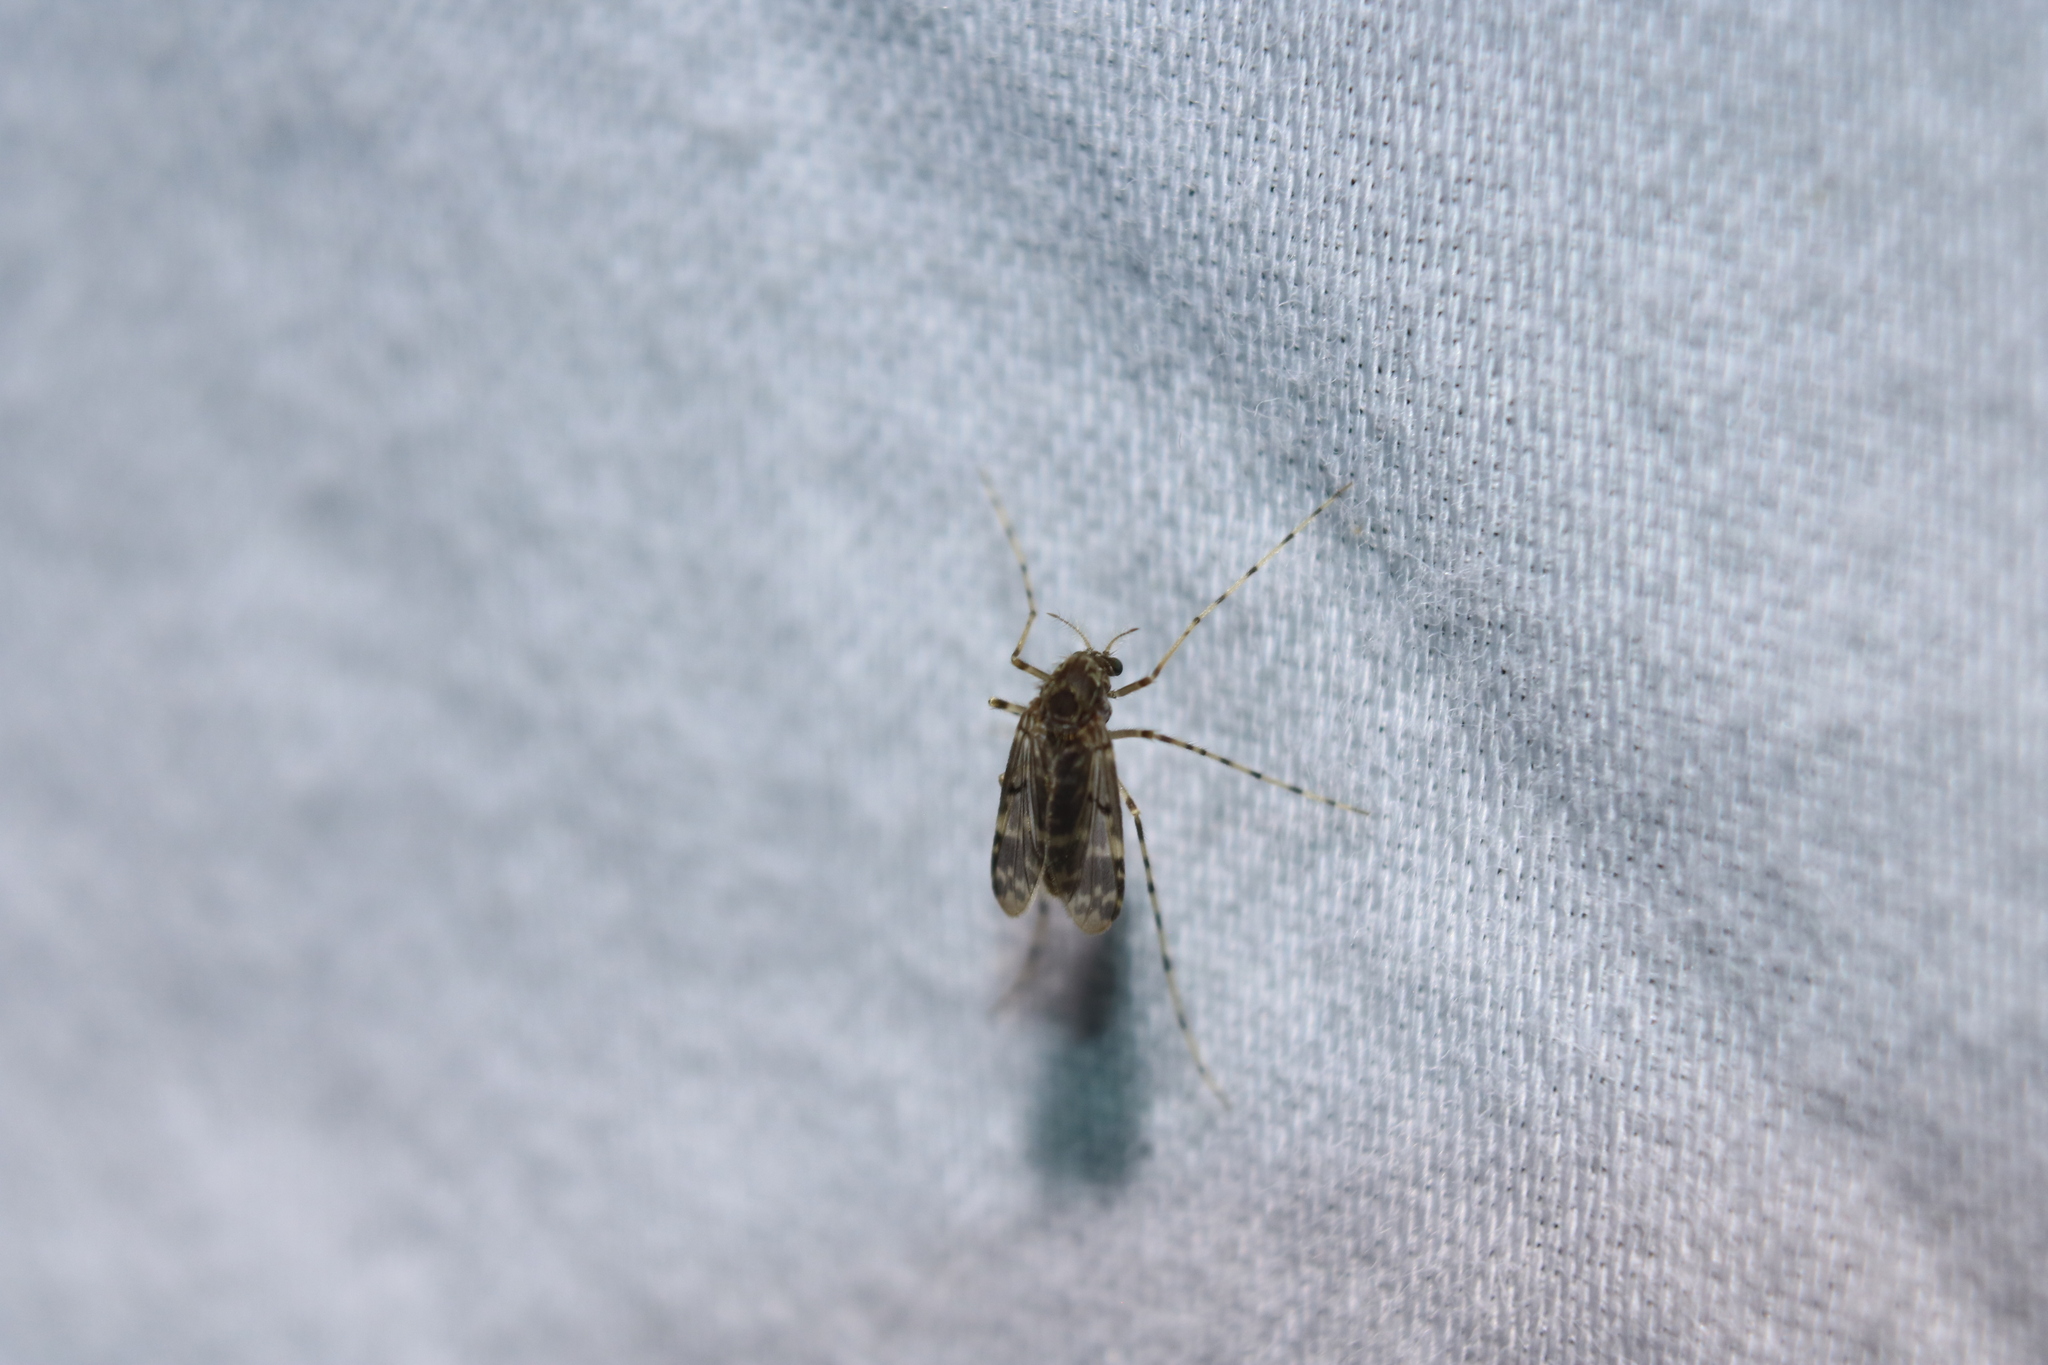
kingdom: Animalia
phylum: Arthropoda
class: Insecta
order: Diptera
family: Chironomidae
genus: Ablabesmyia
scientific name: Ablabesmyia annulata
